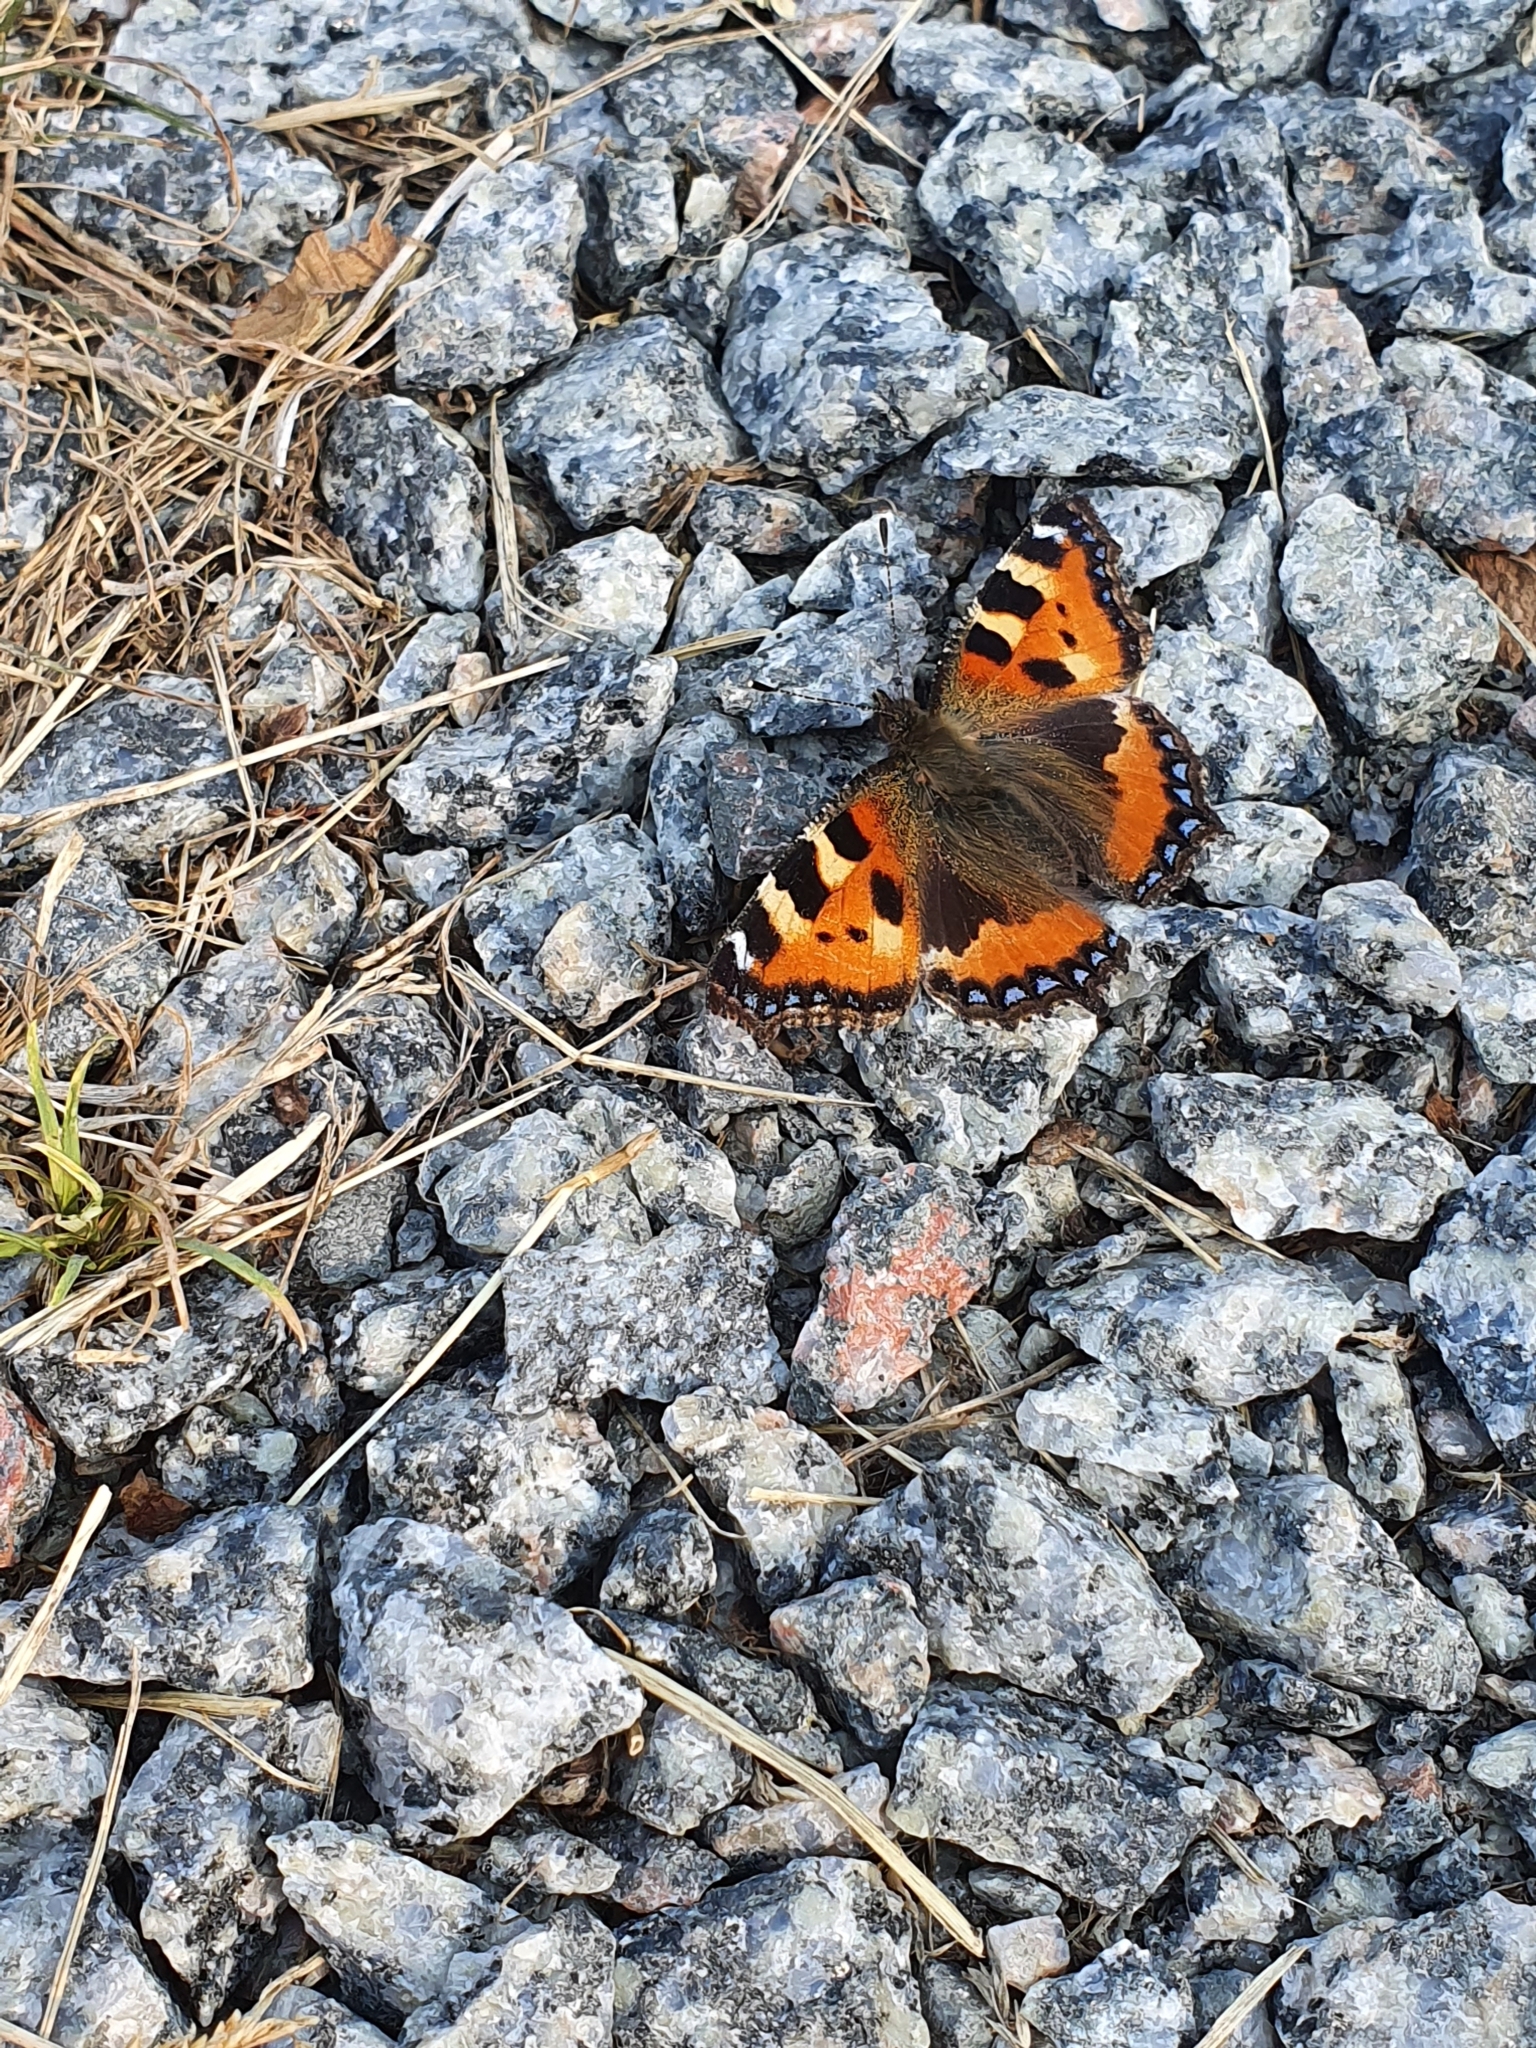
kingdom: Animalia
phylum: Arthropoda
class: Insecta
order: Lepidoptera
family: Nymphalidae
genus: Aglais
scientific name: Aglais urticae
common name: Small tortoiseshell
